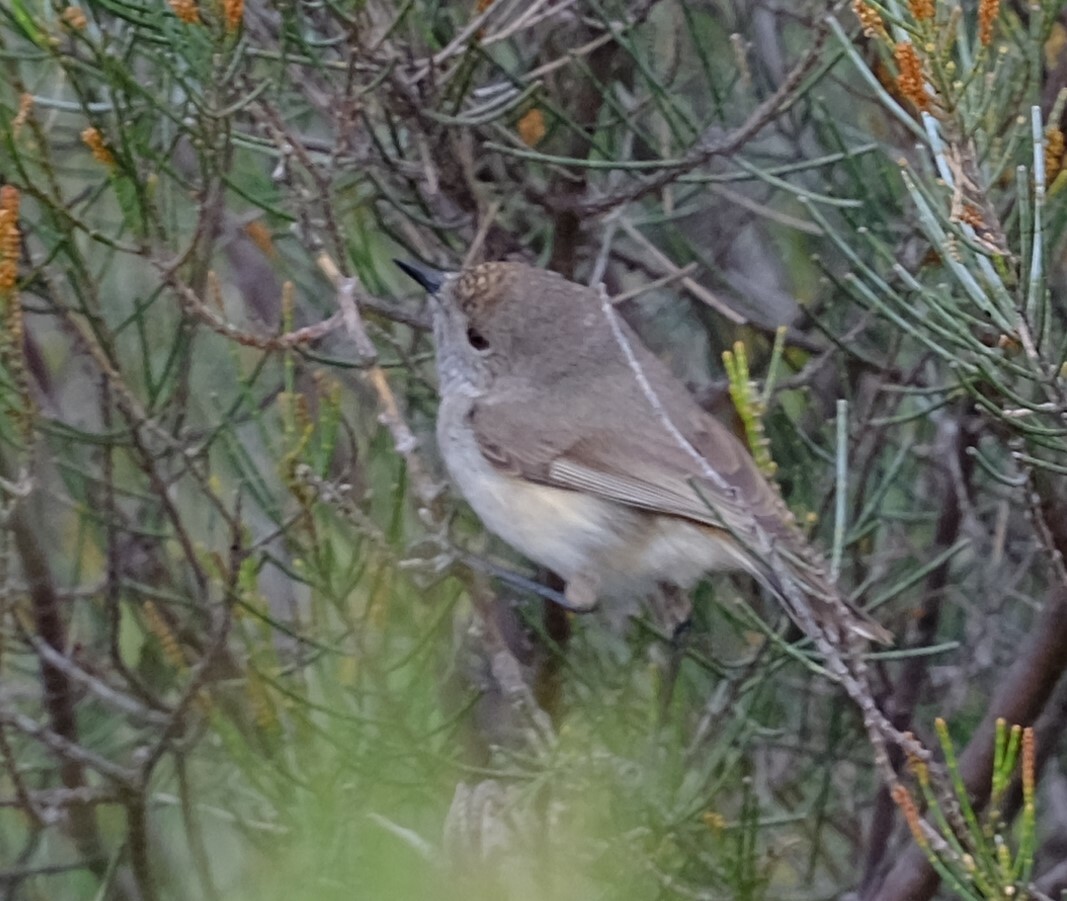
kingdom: Animalia
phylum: Chordata
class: Aves
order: Passeriformes
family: Acanthizidae
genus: Acanthiza
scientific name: Acanthiza apicalis
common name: Inland thornbill
